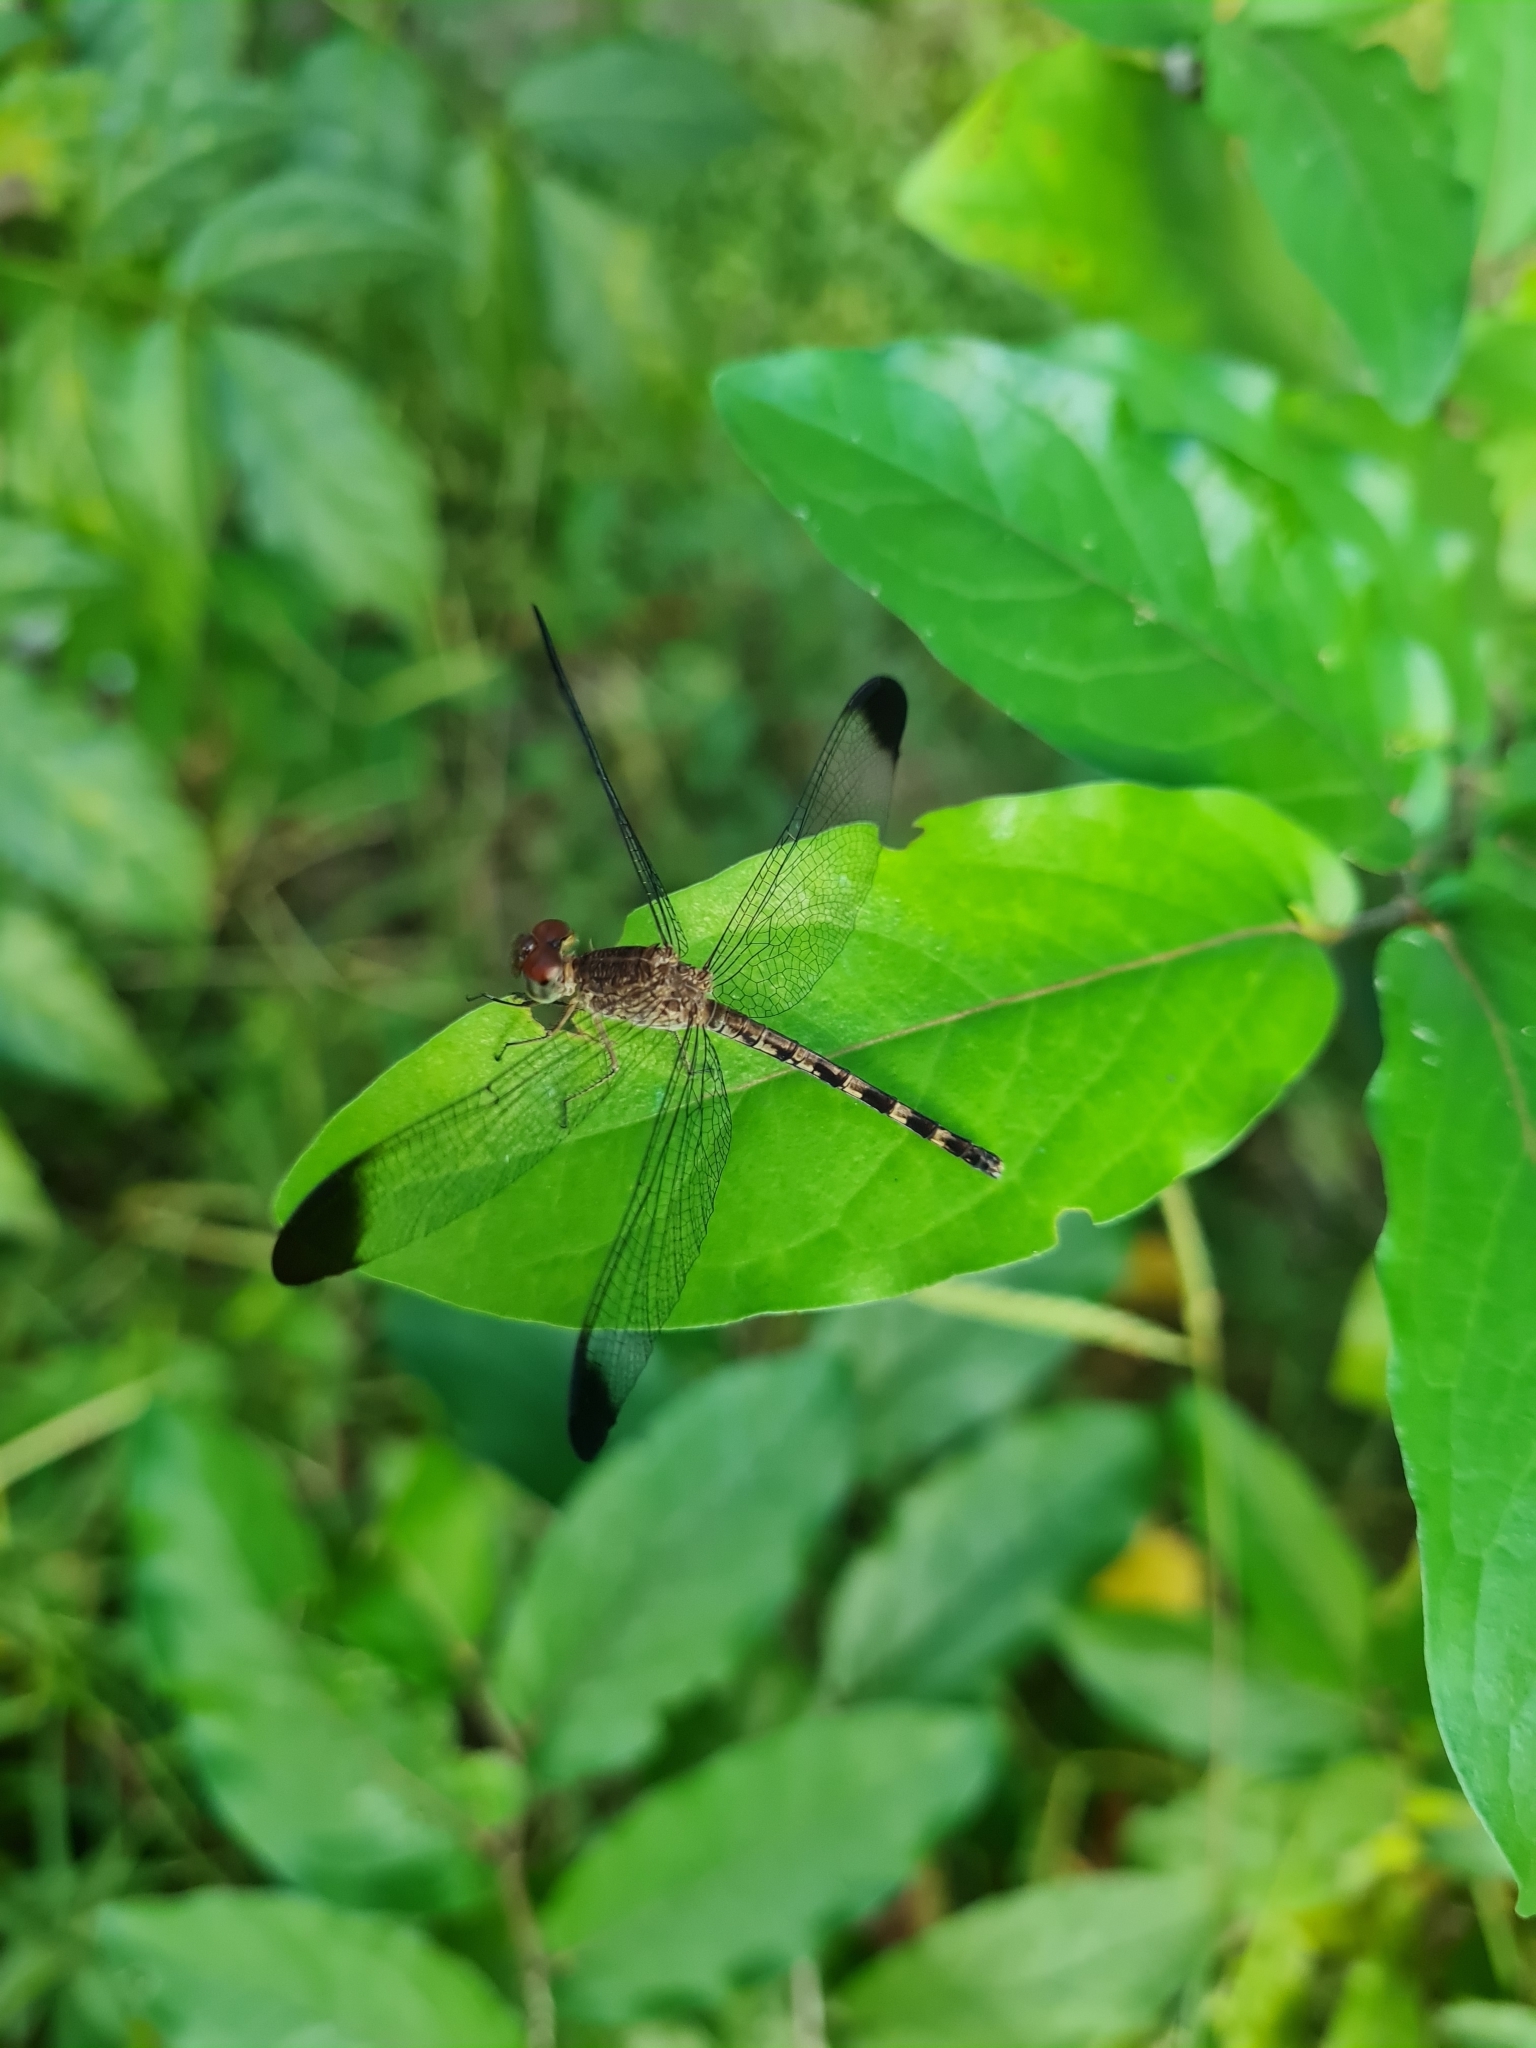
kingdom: Animalia
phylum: Arthropoda
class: Insecta
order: Odonata
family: Libellulidae
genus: Uracis
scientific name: Uracis imbuta
